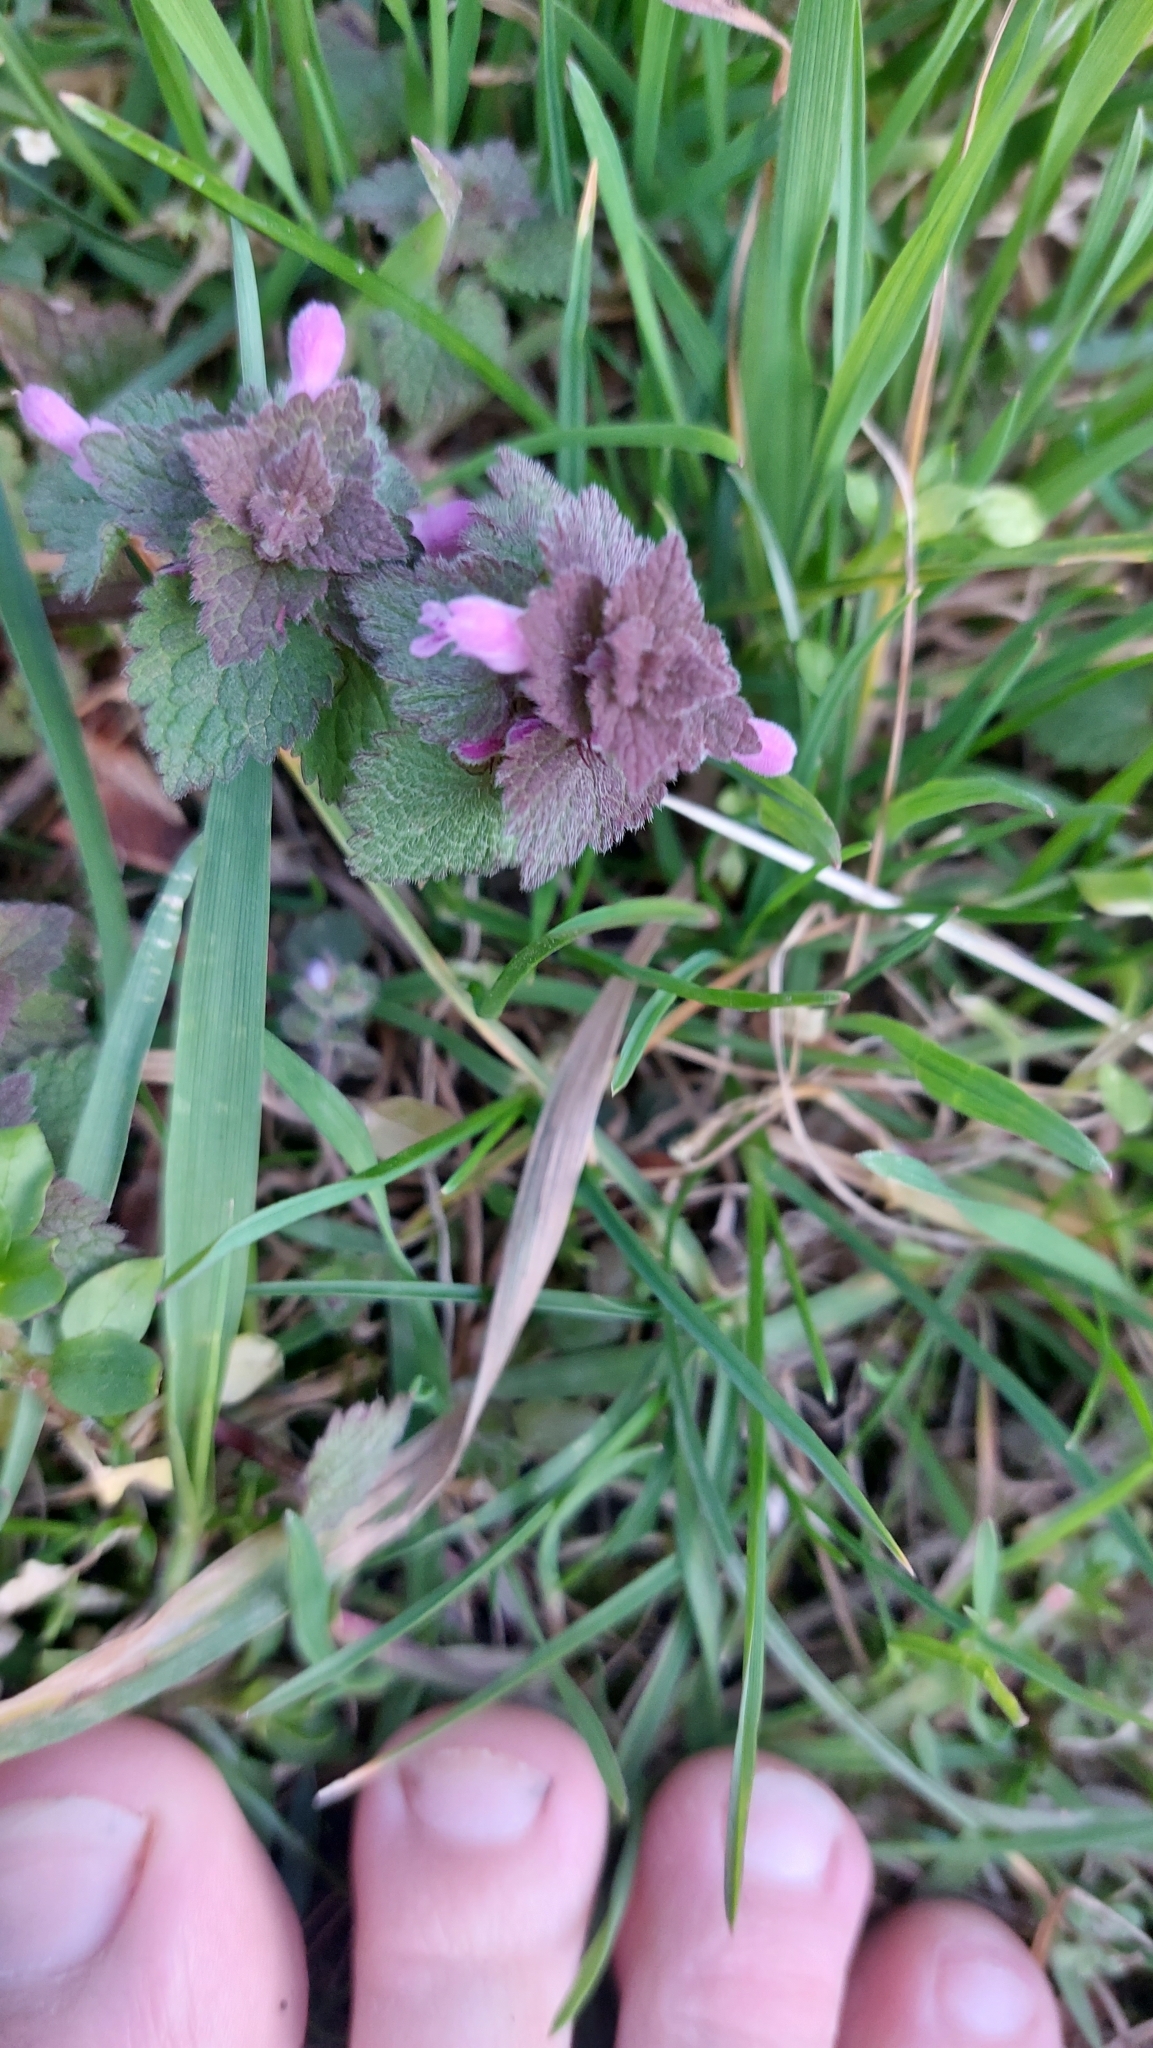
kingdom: Plantae
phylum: Tracheophyta
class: Magnoliopsida
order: Lamiales
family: Lamiaceae
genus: Lamium
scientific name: Lamium purpureum
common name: Red dead-nettle
